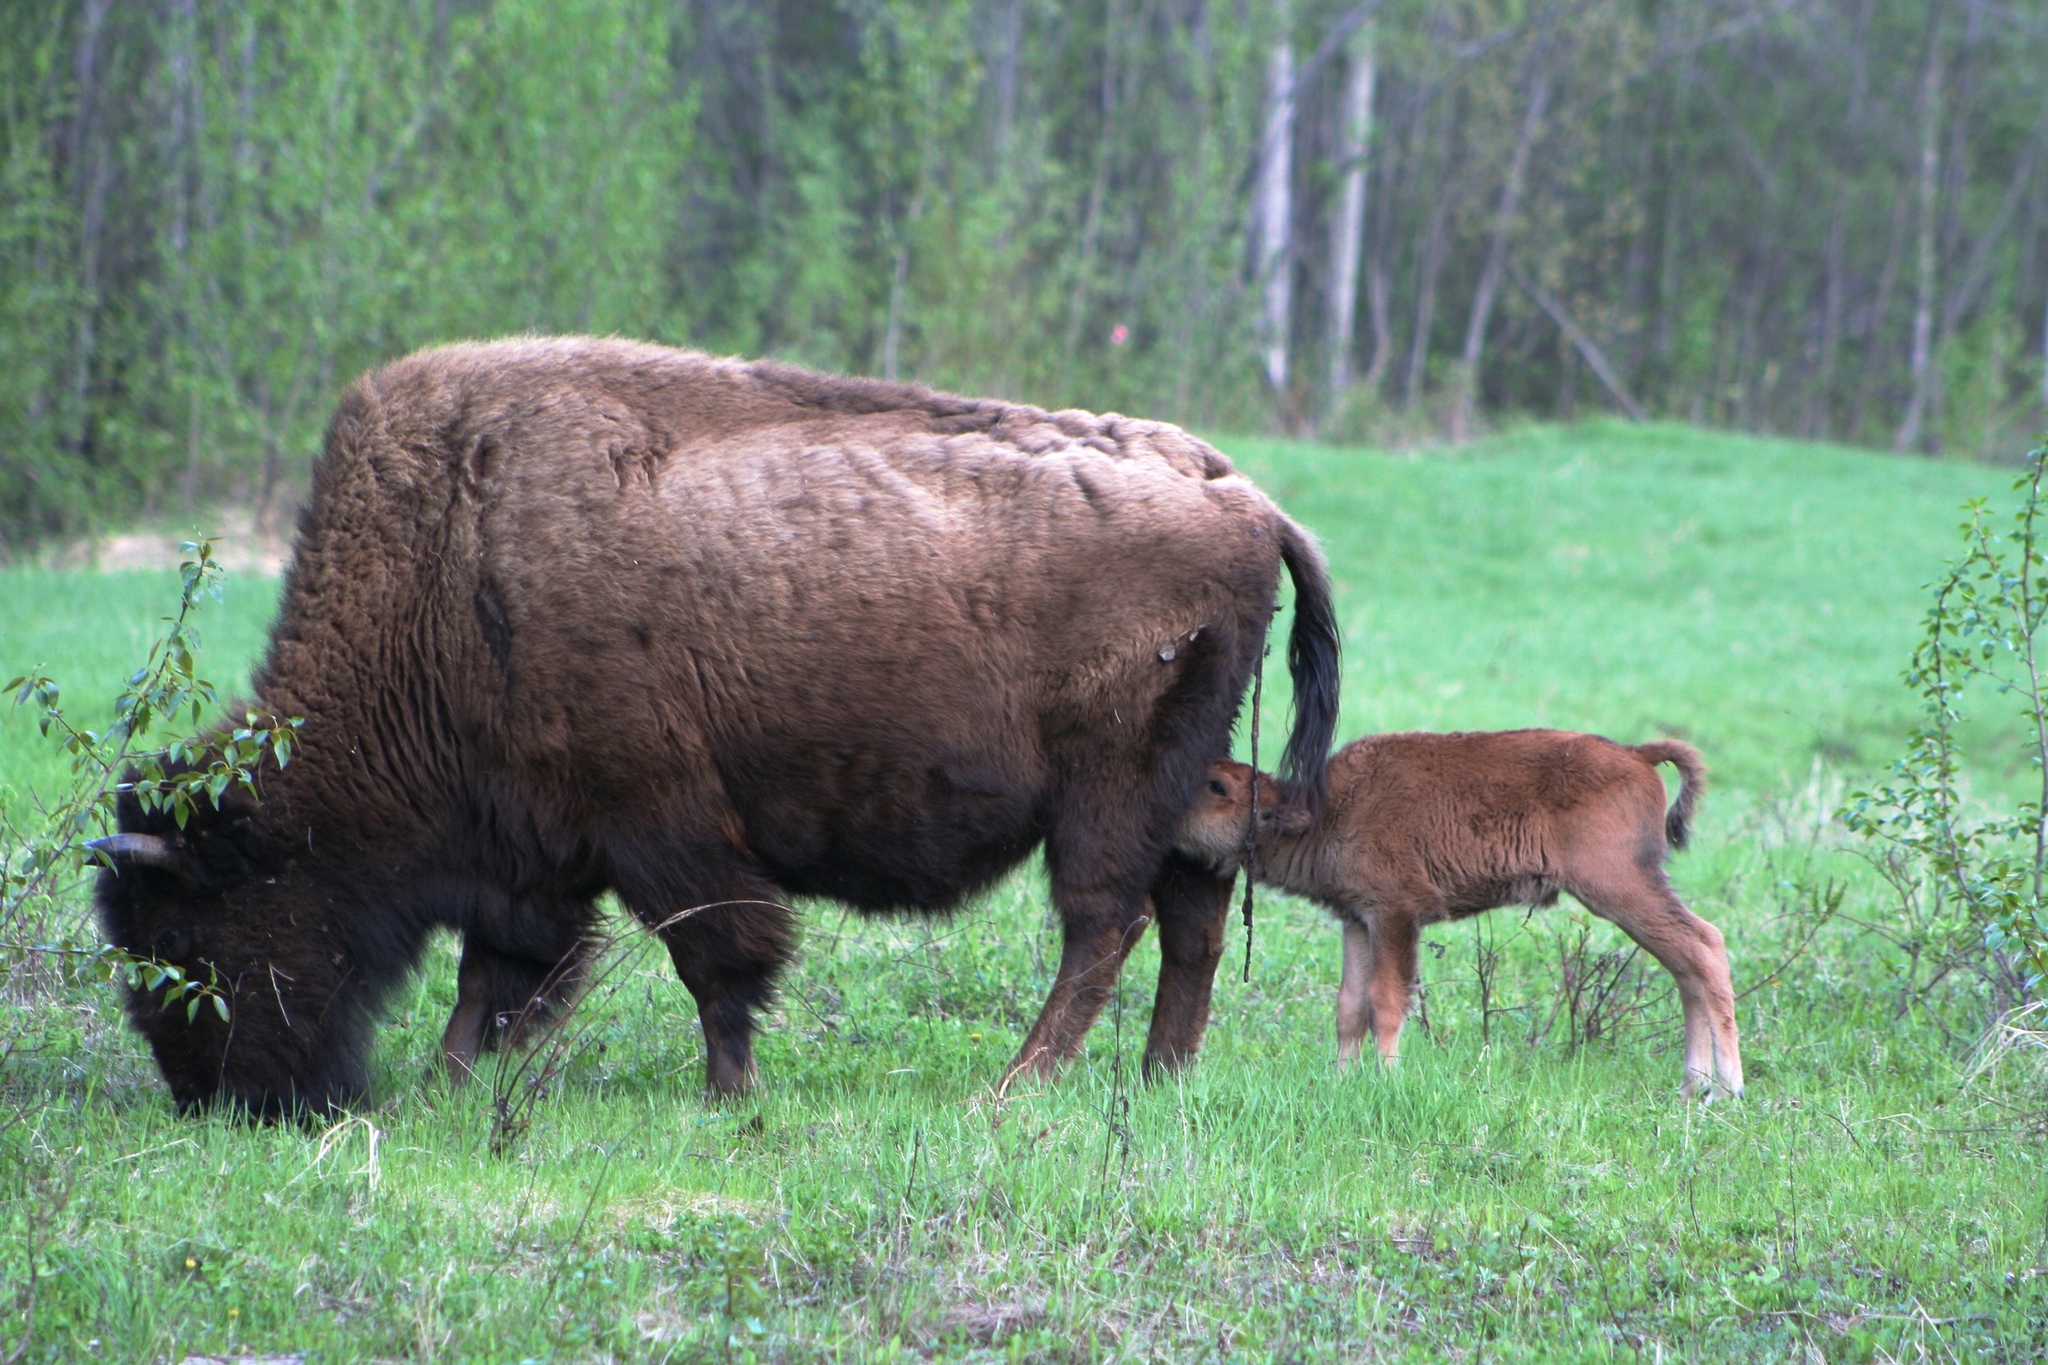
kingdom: Animalia
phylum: Chordata
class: Mammalia
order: Artiodactyla
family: Bovidae
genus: Bison
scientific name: Bison bison
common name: American bison
